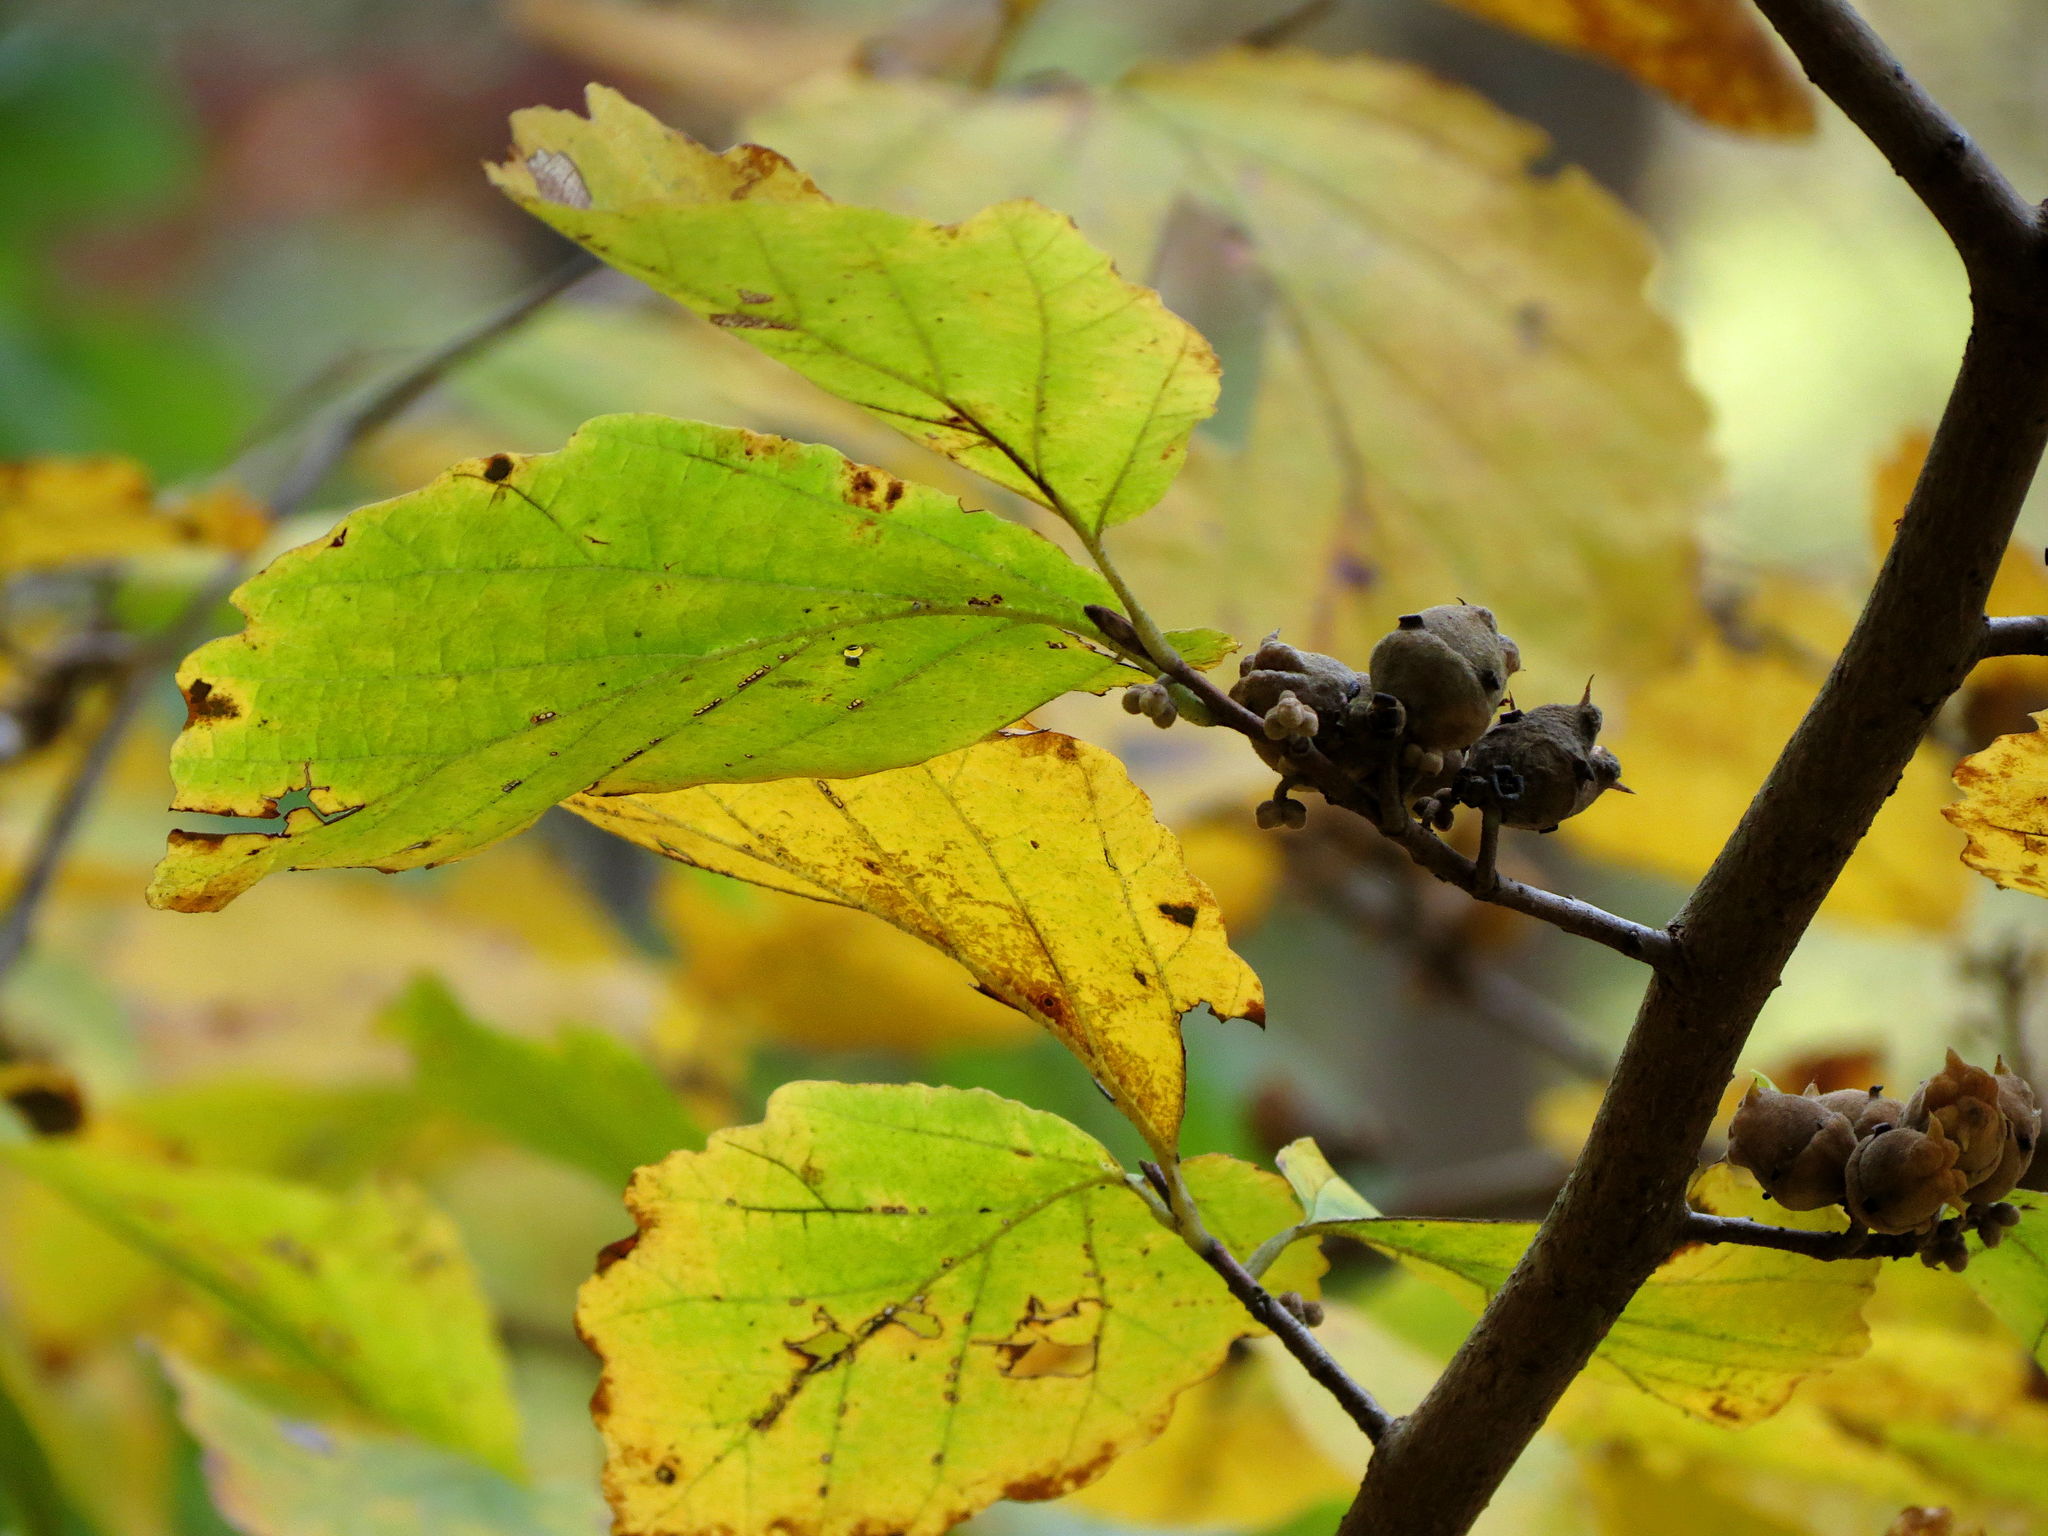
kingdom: Plantae
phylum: Tracheophyta
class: Magnoliopsida
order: Saxifragales
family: Hamamelidaceae
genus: Hamamelis
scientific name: Hamamelis virginiana
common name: Witch-hazel
